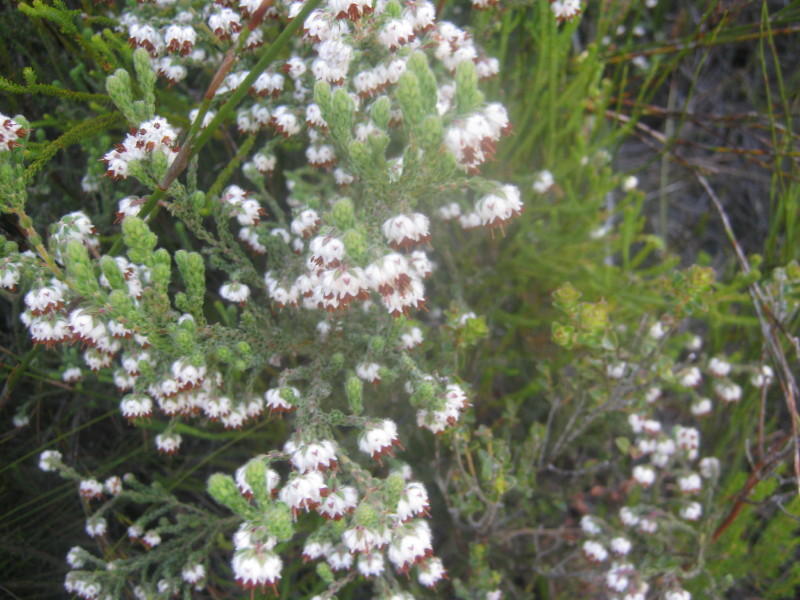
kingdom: Plantae
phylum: Tracheophyta
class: Magnoliopsida
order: Ericales
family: Ericaceae
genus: Erica
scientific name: Erica flaccida
